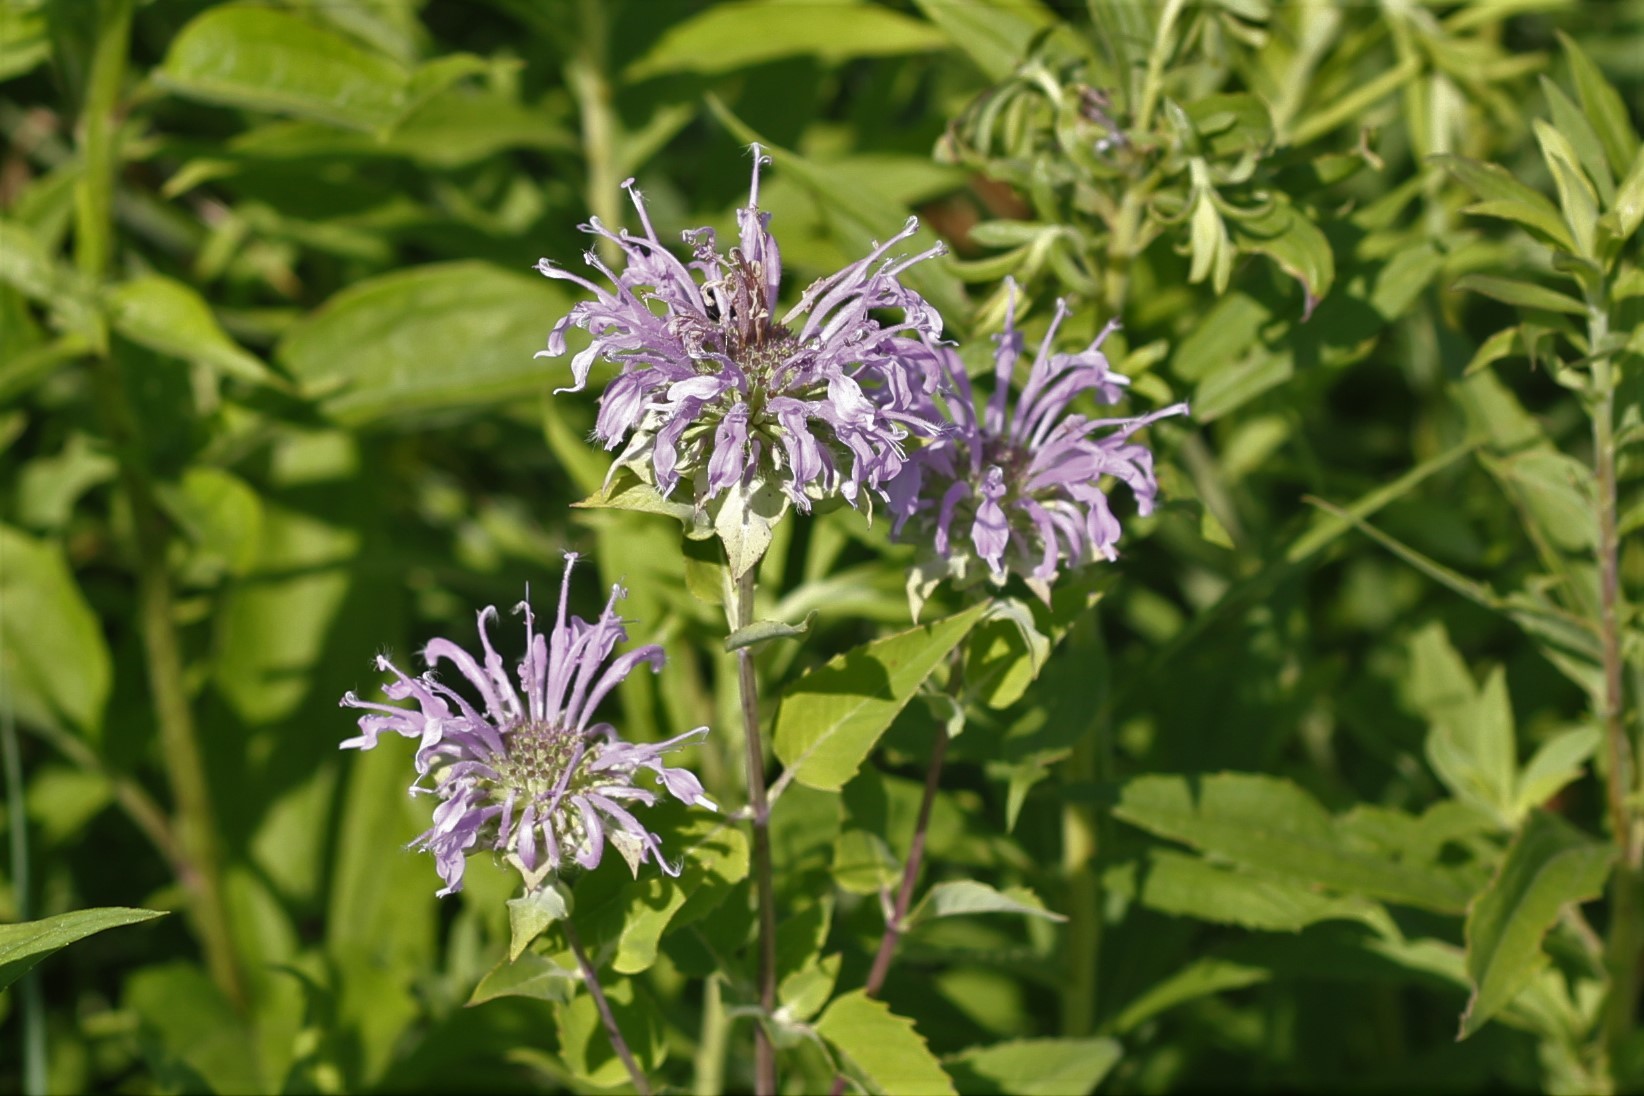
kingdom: Plantae
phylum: Tracheophyta
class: Magnoliopsida
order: Lamiales
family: Lamiaceae
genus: Monarda
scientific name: Monarda fistulosa
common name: Purple beebalm
